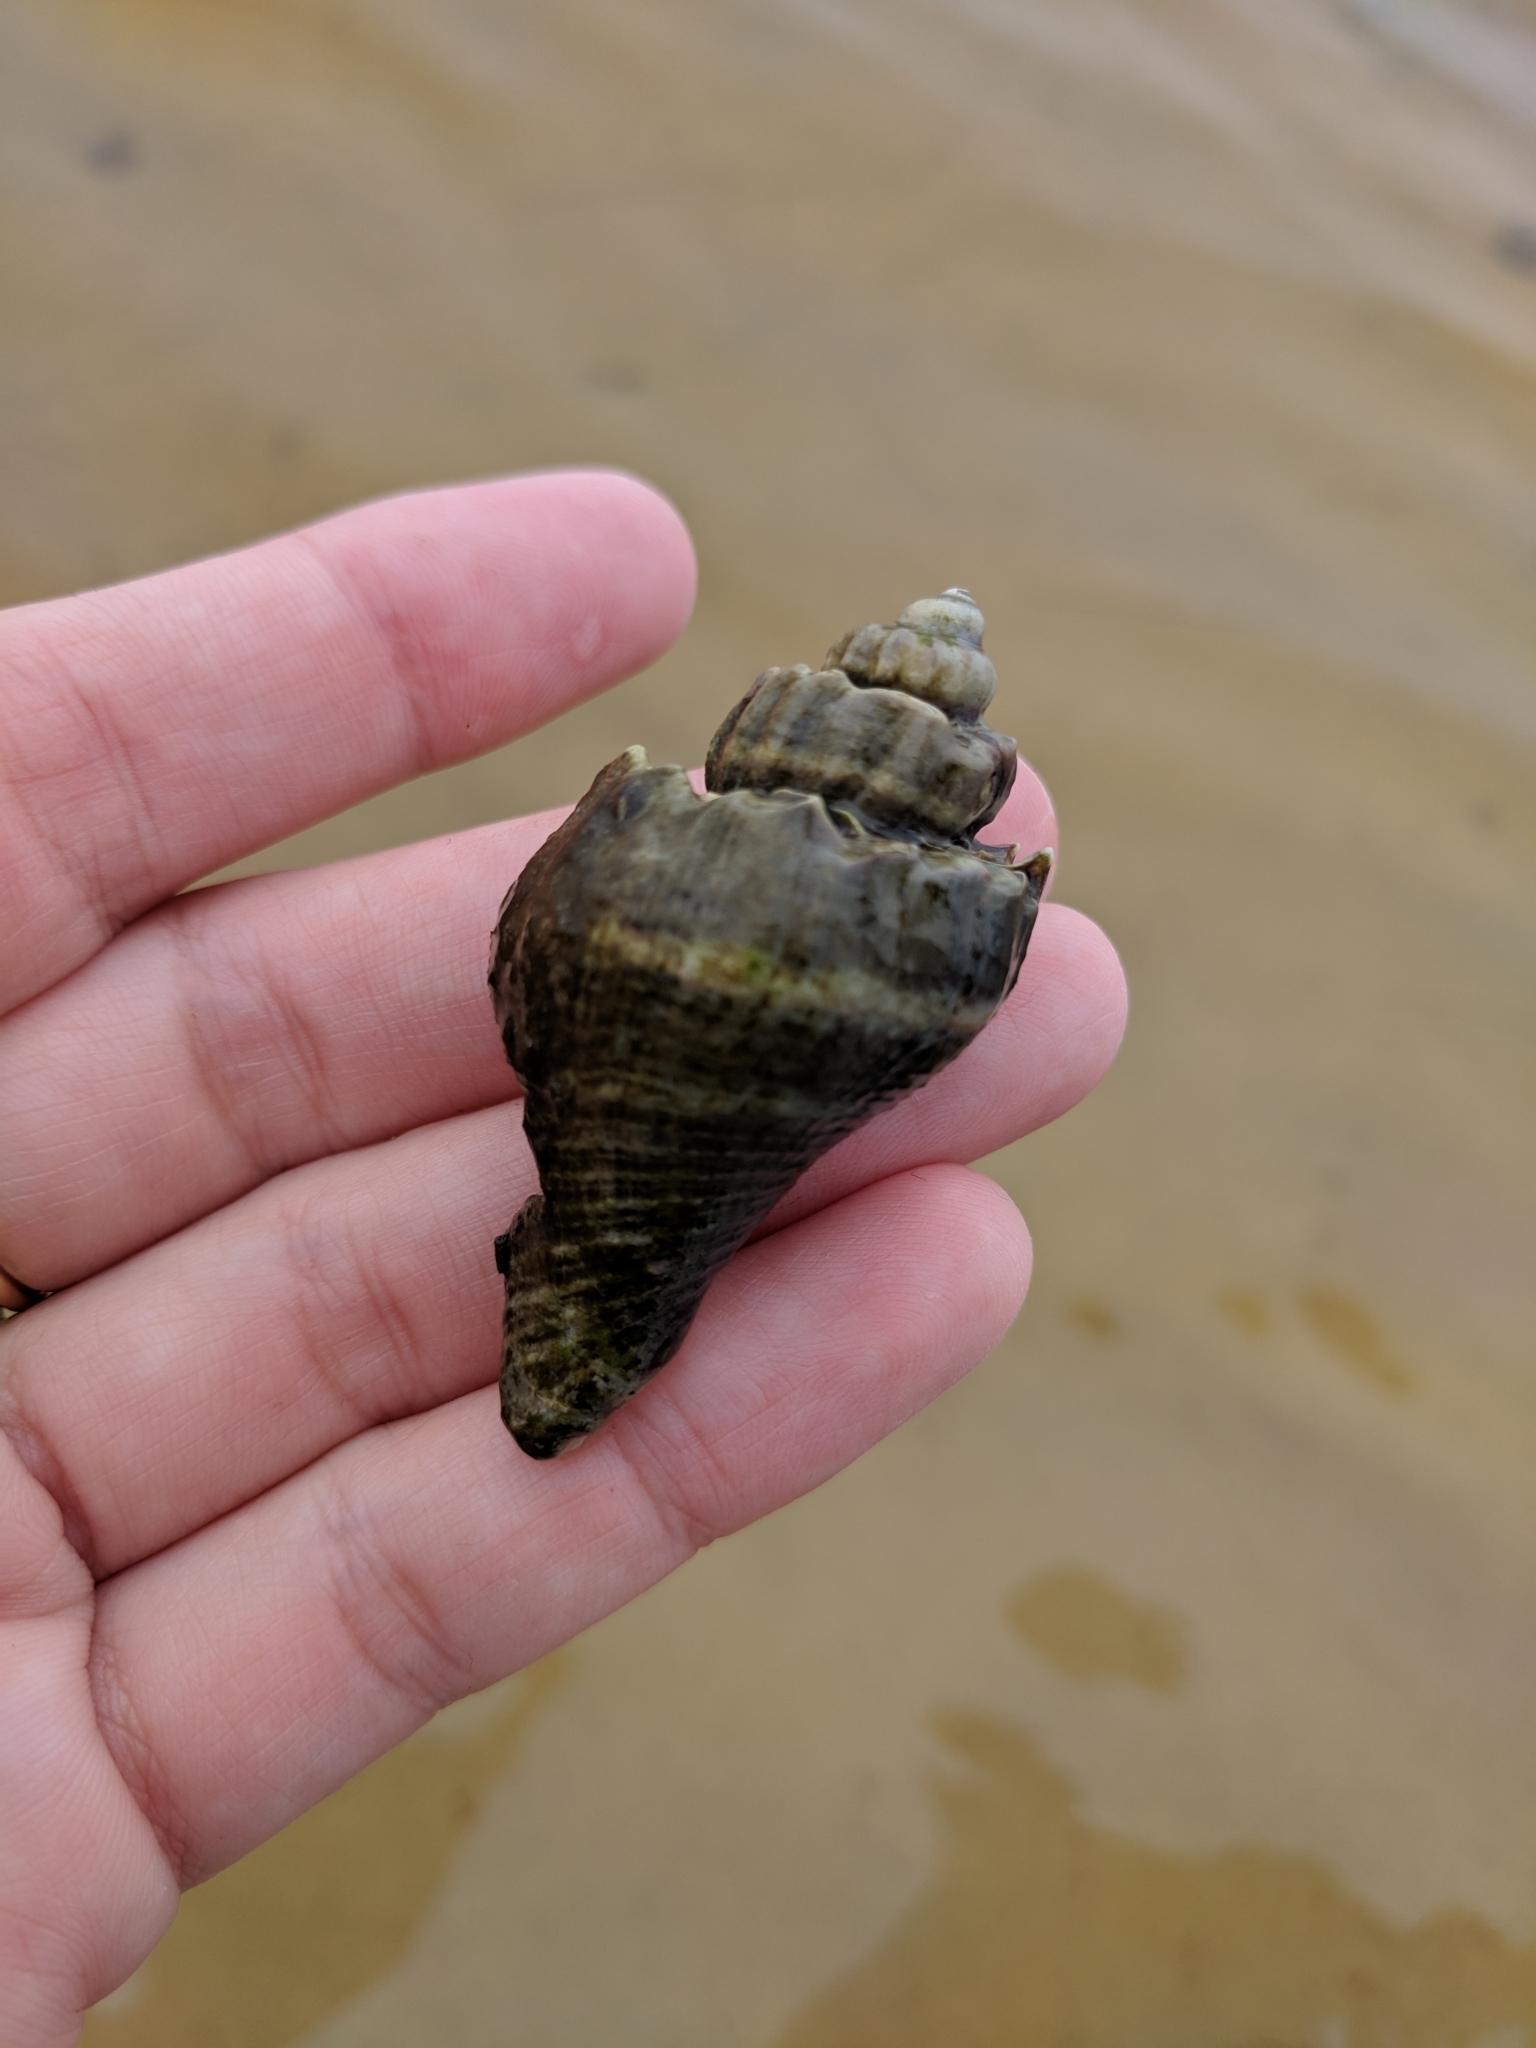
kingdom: Animalia
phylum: Mollusca
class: Gastropoda
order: Neogastropoda
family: Melongenidae
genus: Melongena
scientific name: Melongena corona
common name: American crown conch
